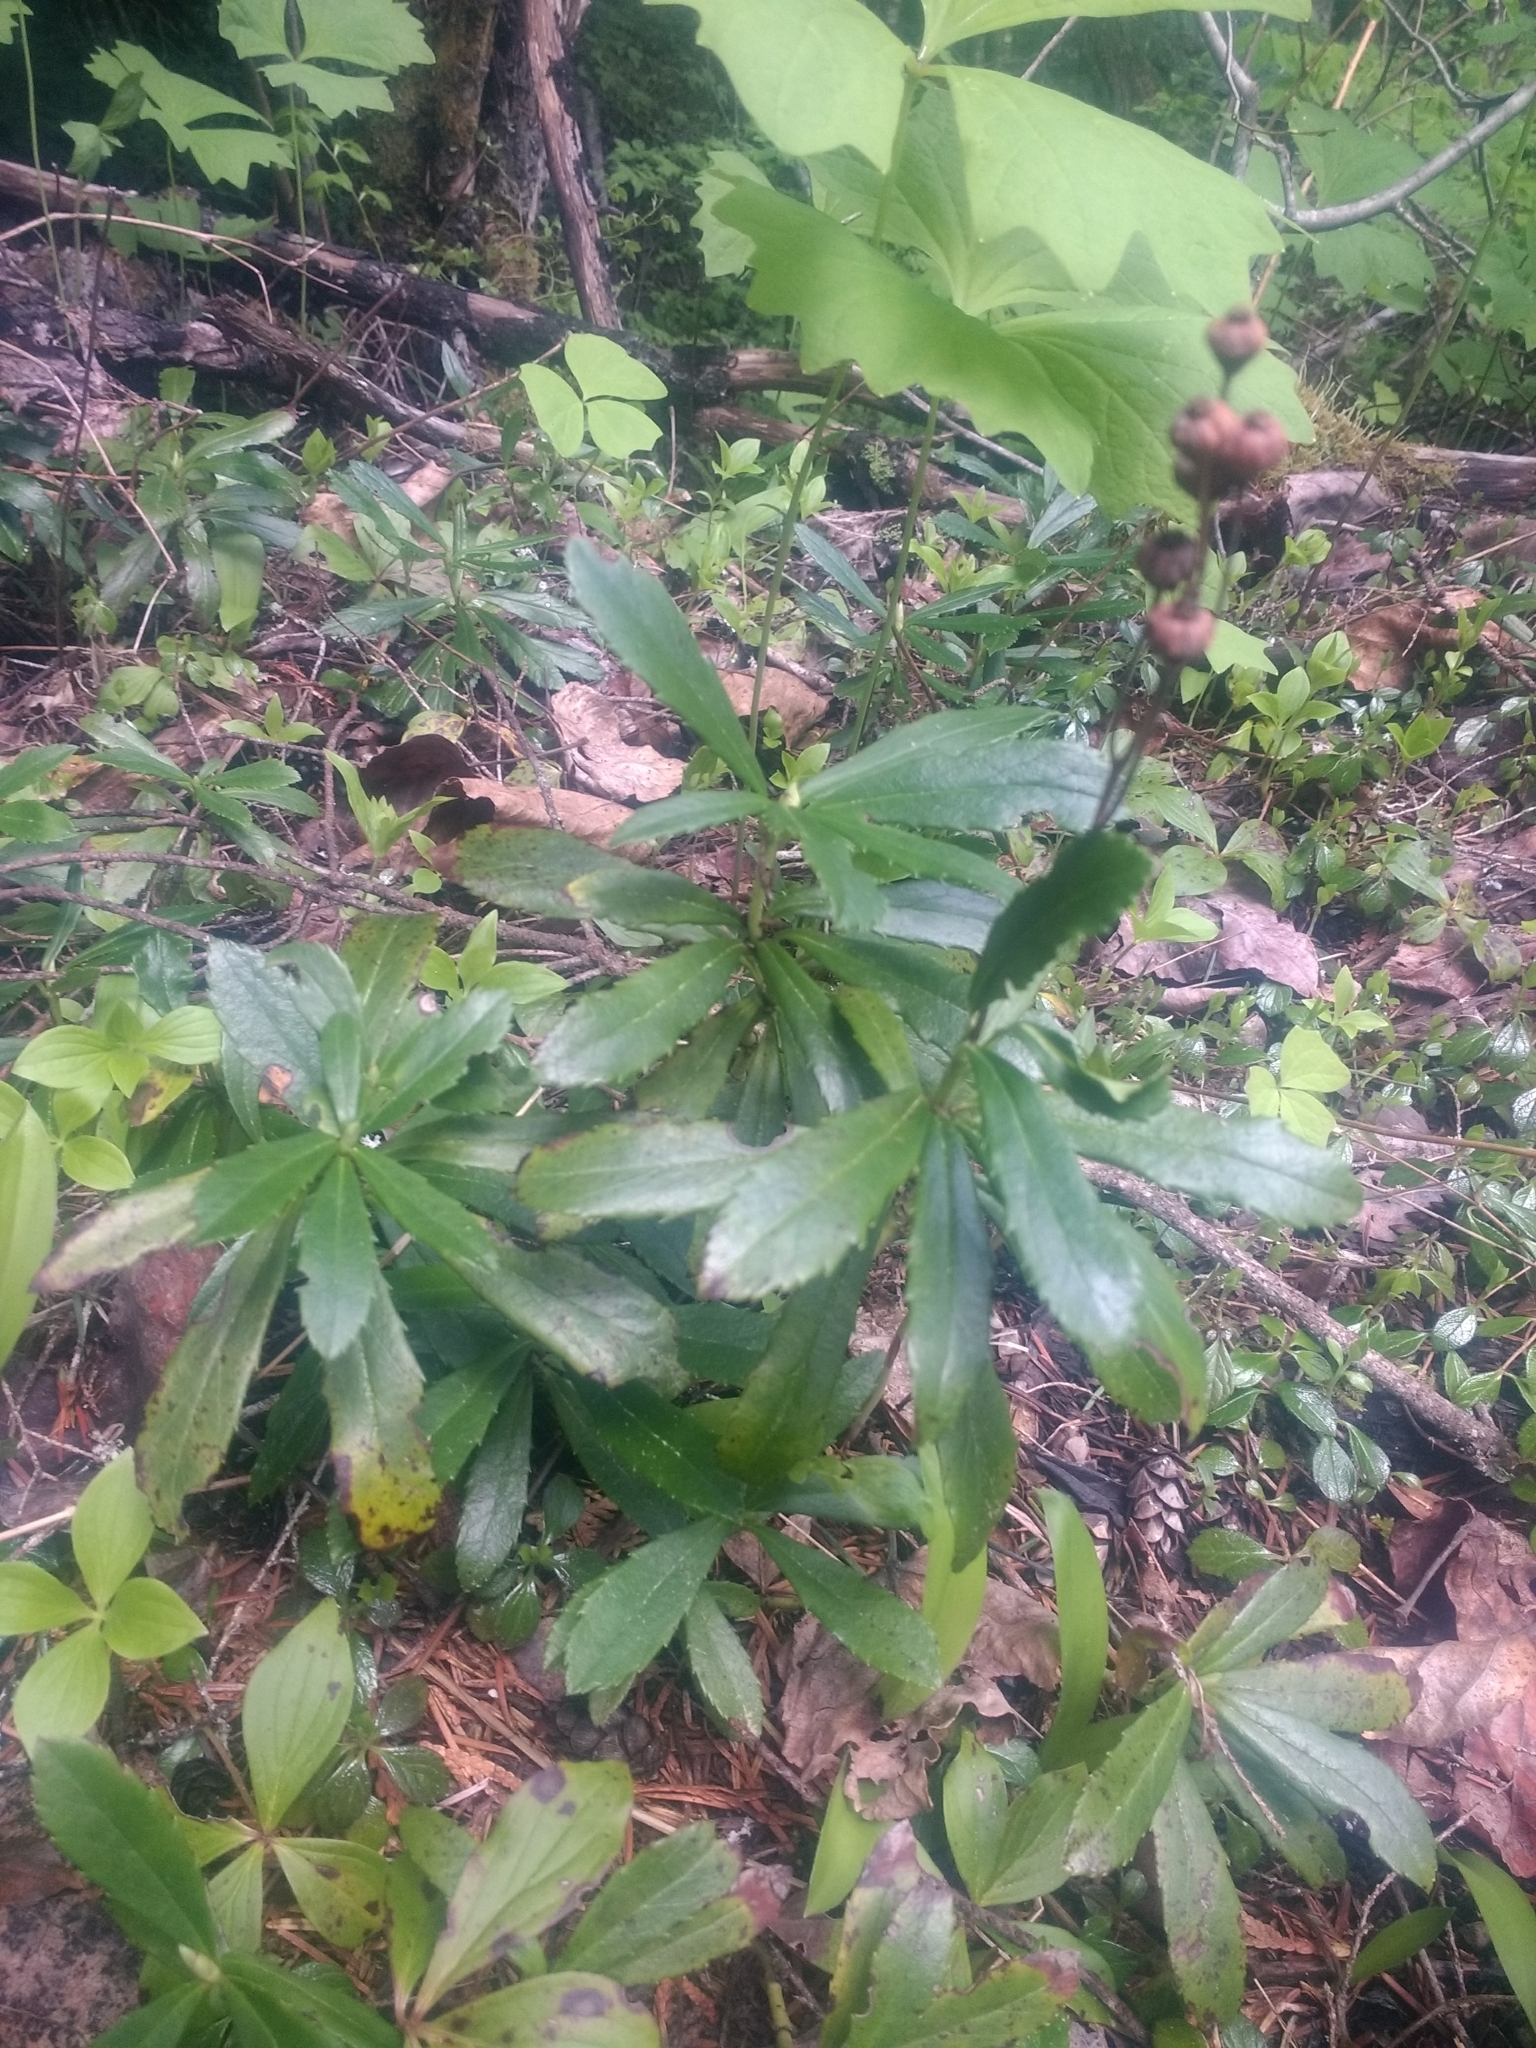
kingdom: Plantae
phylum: Tracheophyta
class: Magnoliopsida
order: Ericales
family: Ericaceae
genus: Chimaphila
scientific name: Chimaphila umbellata
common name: Pipsissewa
